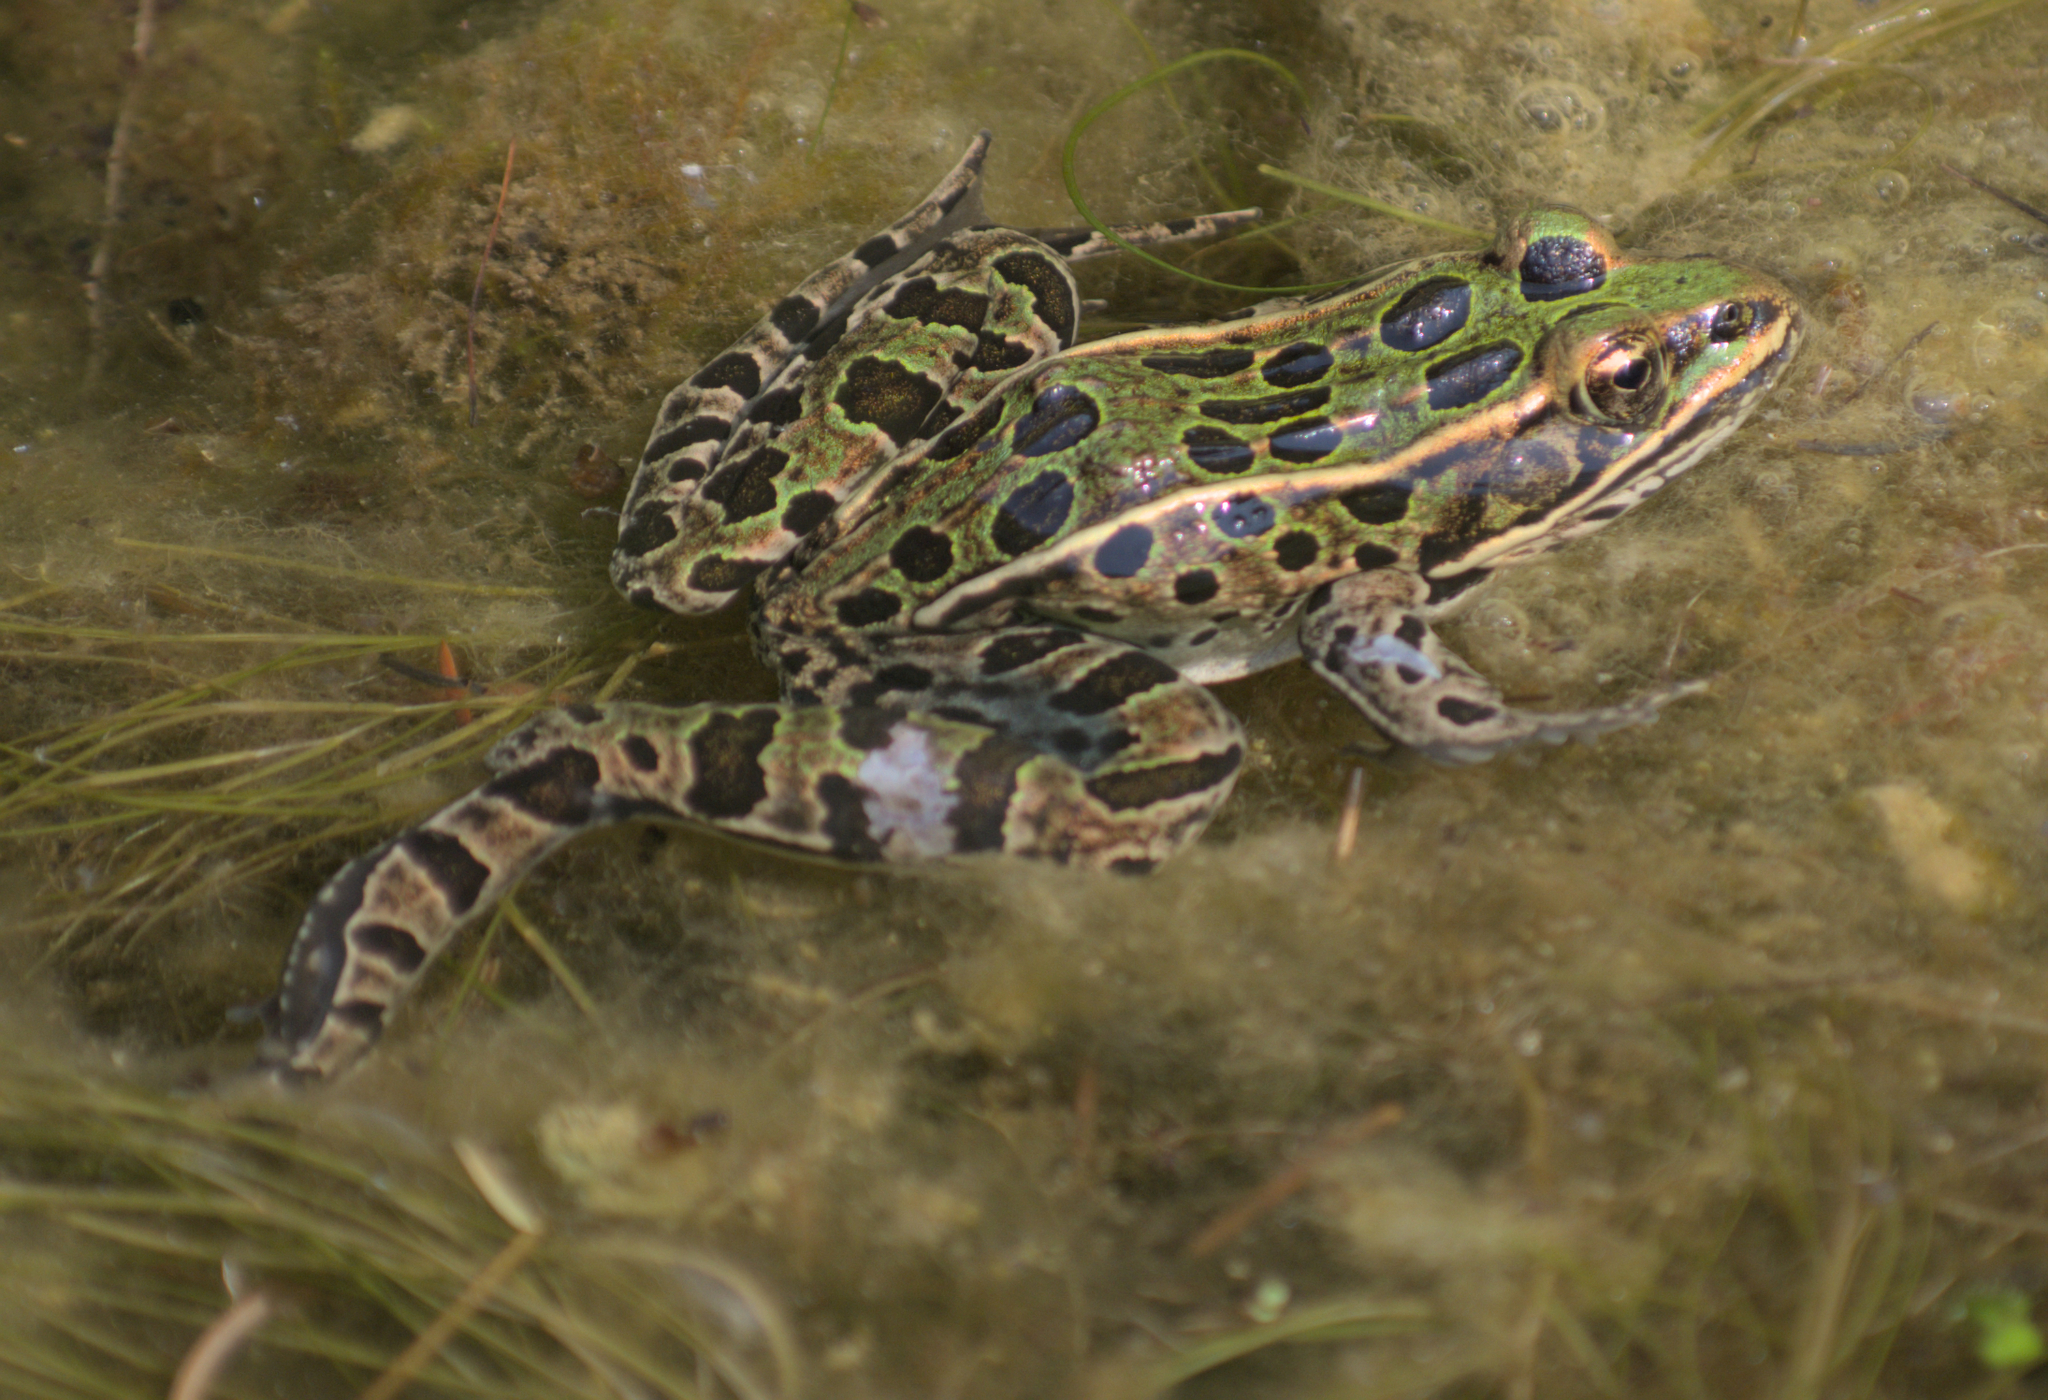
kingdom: Animalia
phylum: Chordata
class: Amphibia
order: Anura
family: Ranidae
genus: Lithobates
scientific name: Lithobates pipiens
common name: Northern leopard frog
